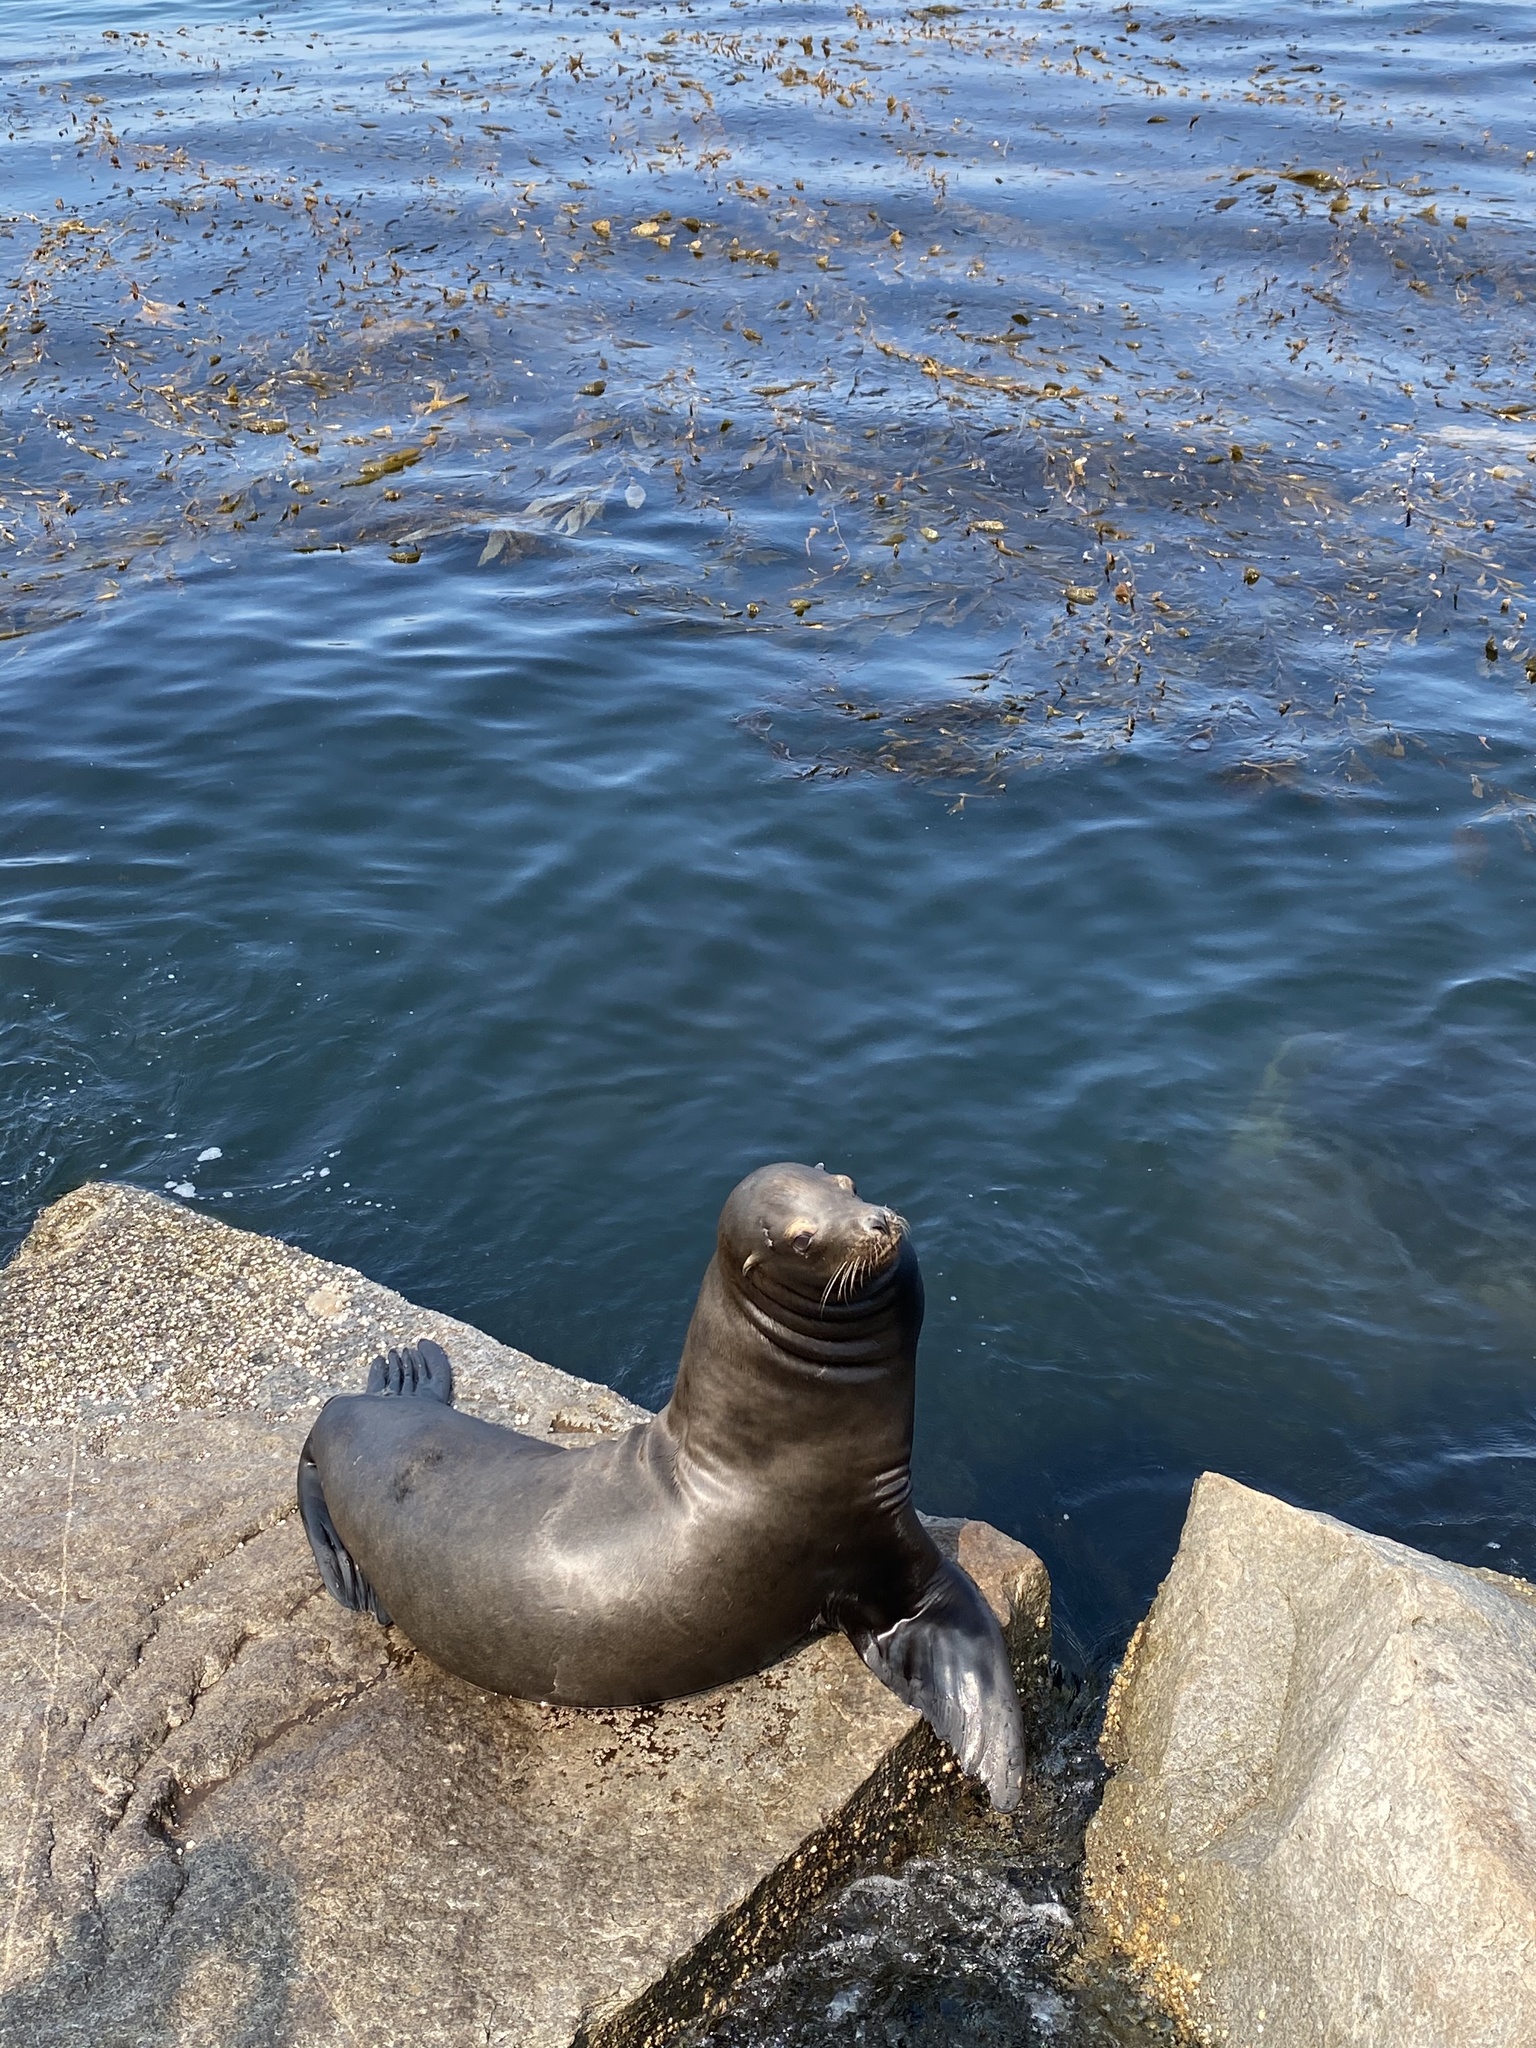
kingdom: Animalia
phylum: Chordata
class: Mammalia
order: Carnivora
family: Otariidae
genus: Zalophus
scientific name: Zalophus californianus
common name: California sea lion
